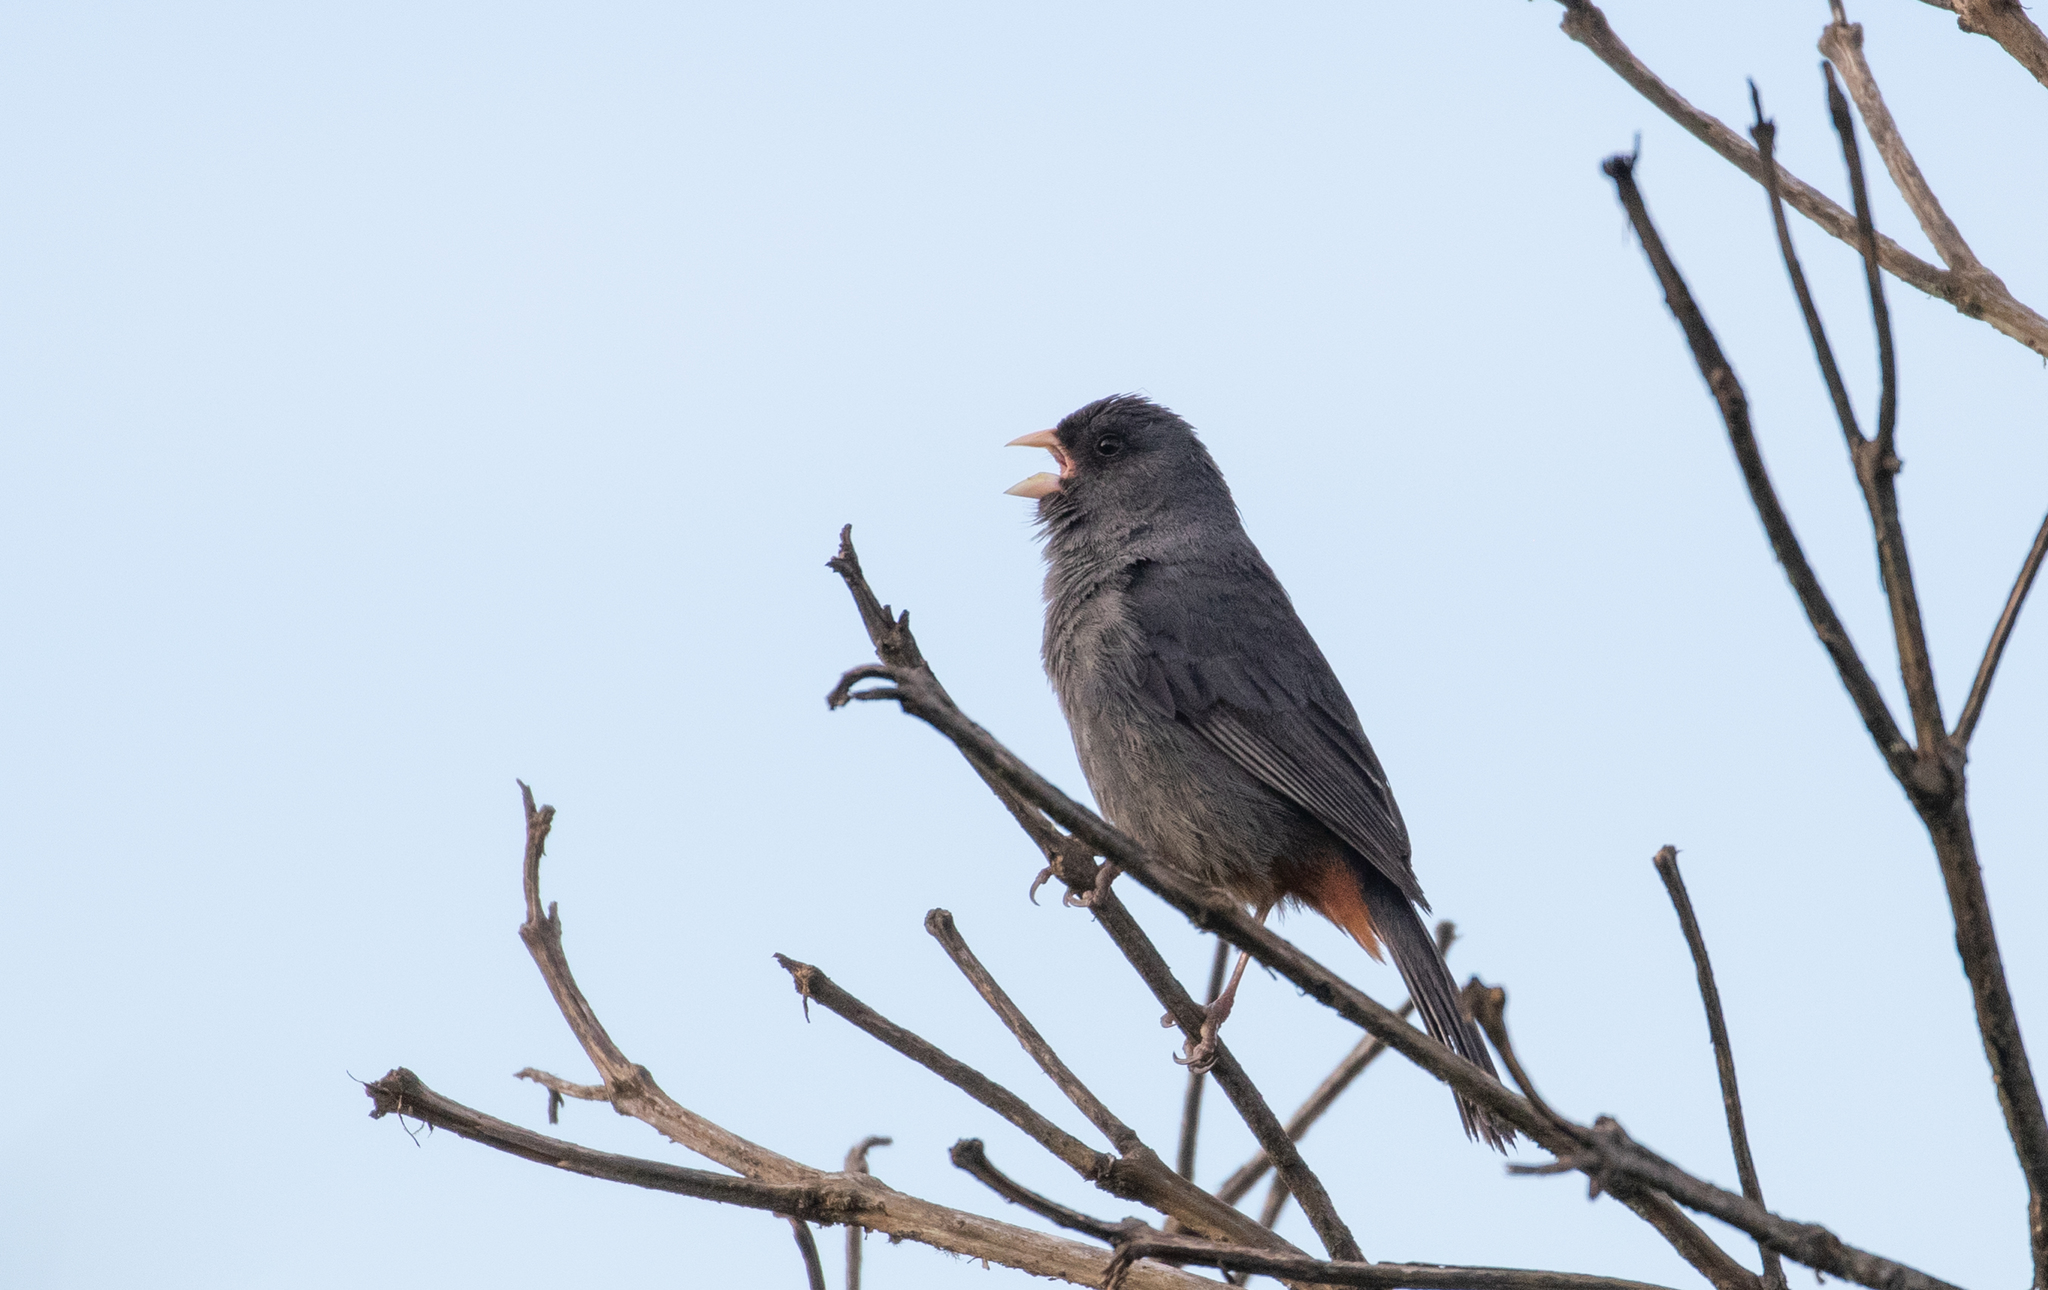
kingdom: Animalia
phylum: Chordata
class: Aves
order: Passeriformes
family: Thraupidae
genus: Catamenia
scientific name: Catamenia homochroa
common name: Paramo seedeater
